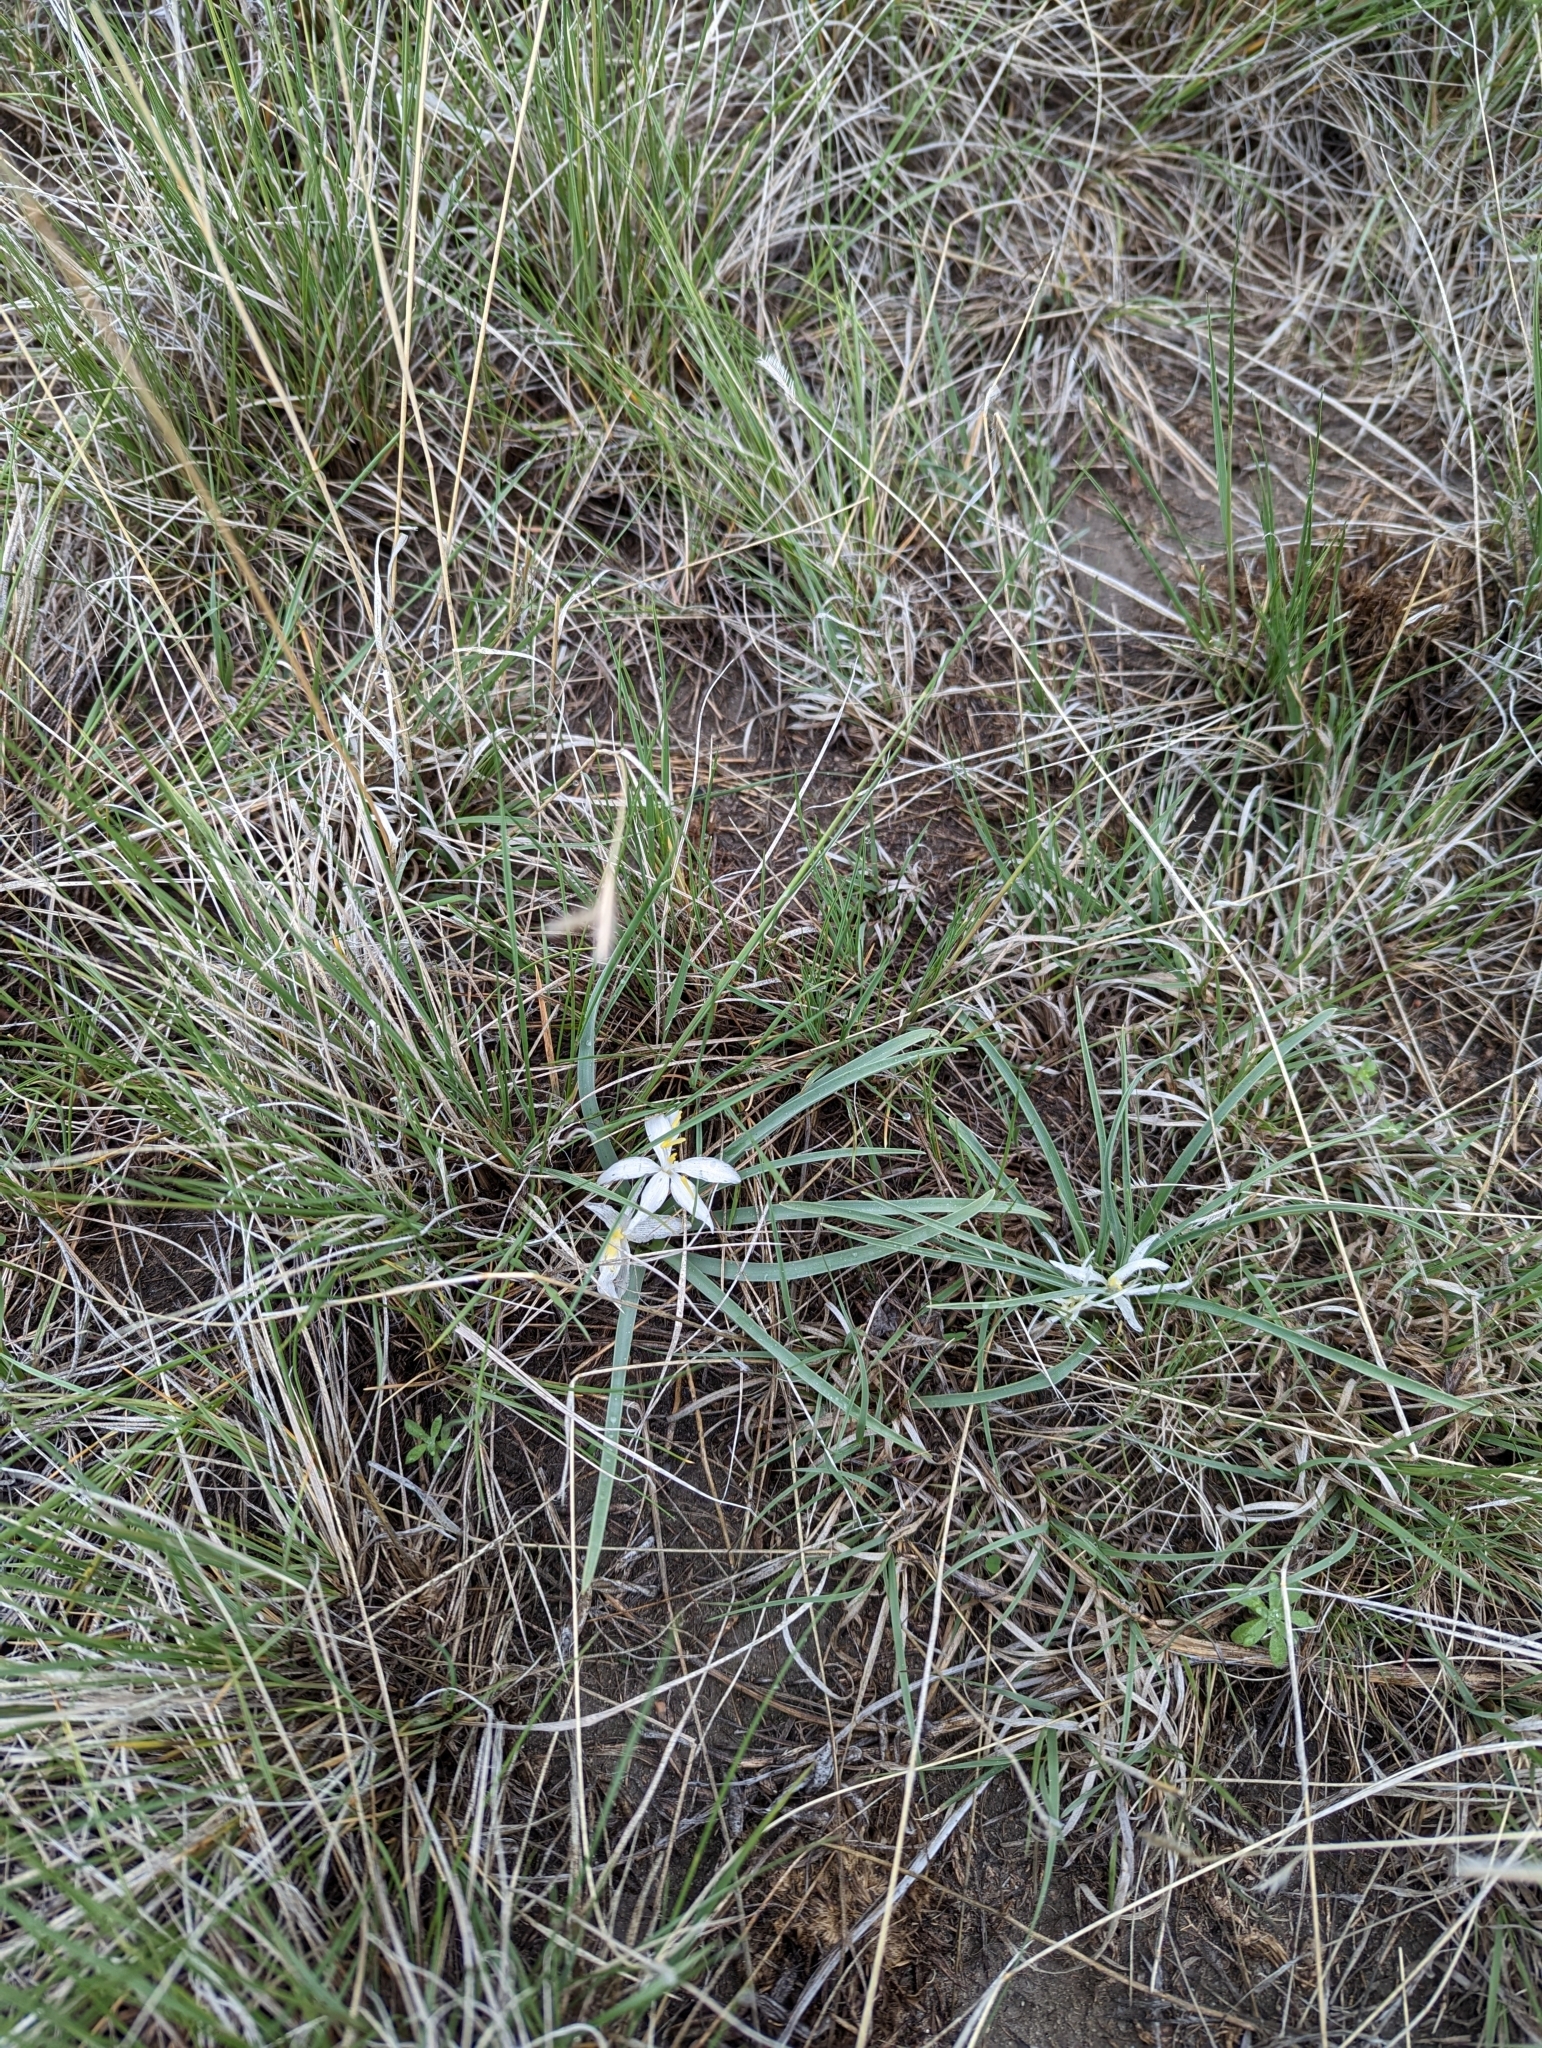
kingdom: Plantae
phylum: Tracheophyta
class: Liliopsida
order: Asparagales
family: Asparagaceae
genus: Leucocrinum
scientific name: Leucocrinum montanum
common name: Mountain-lily
